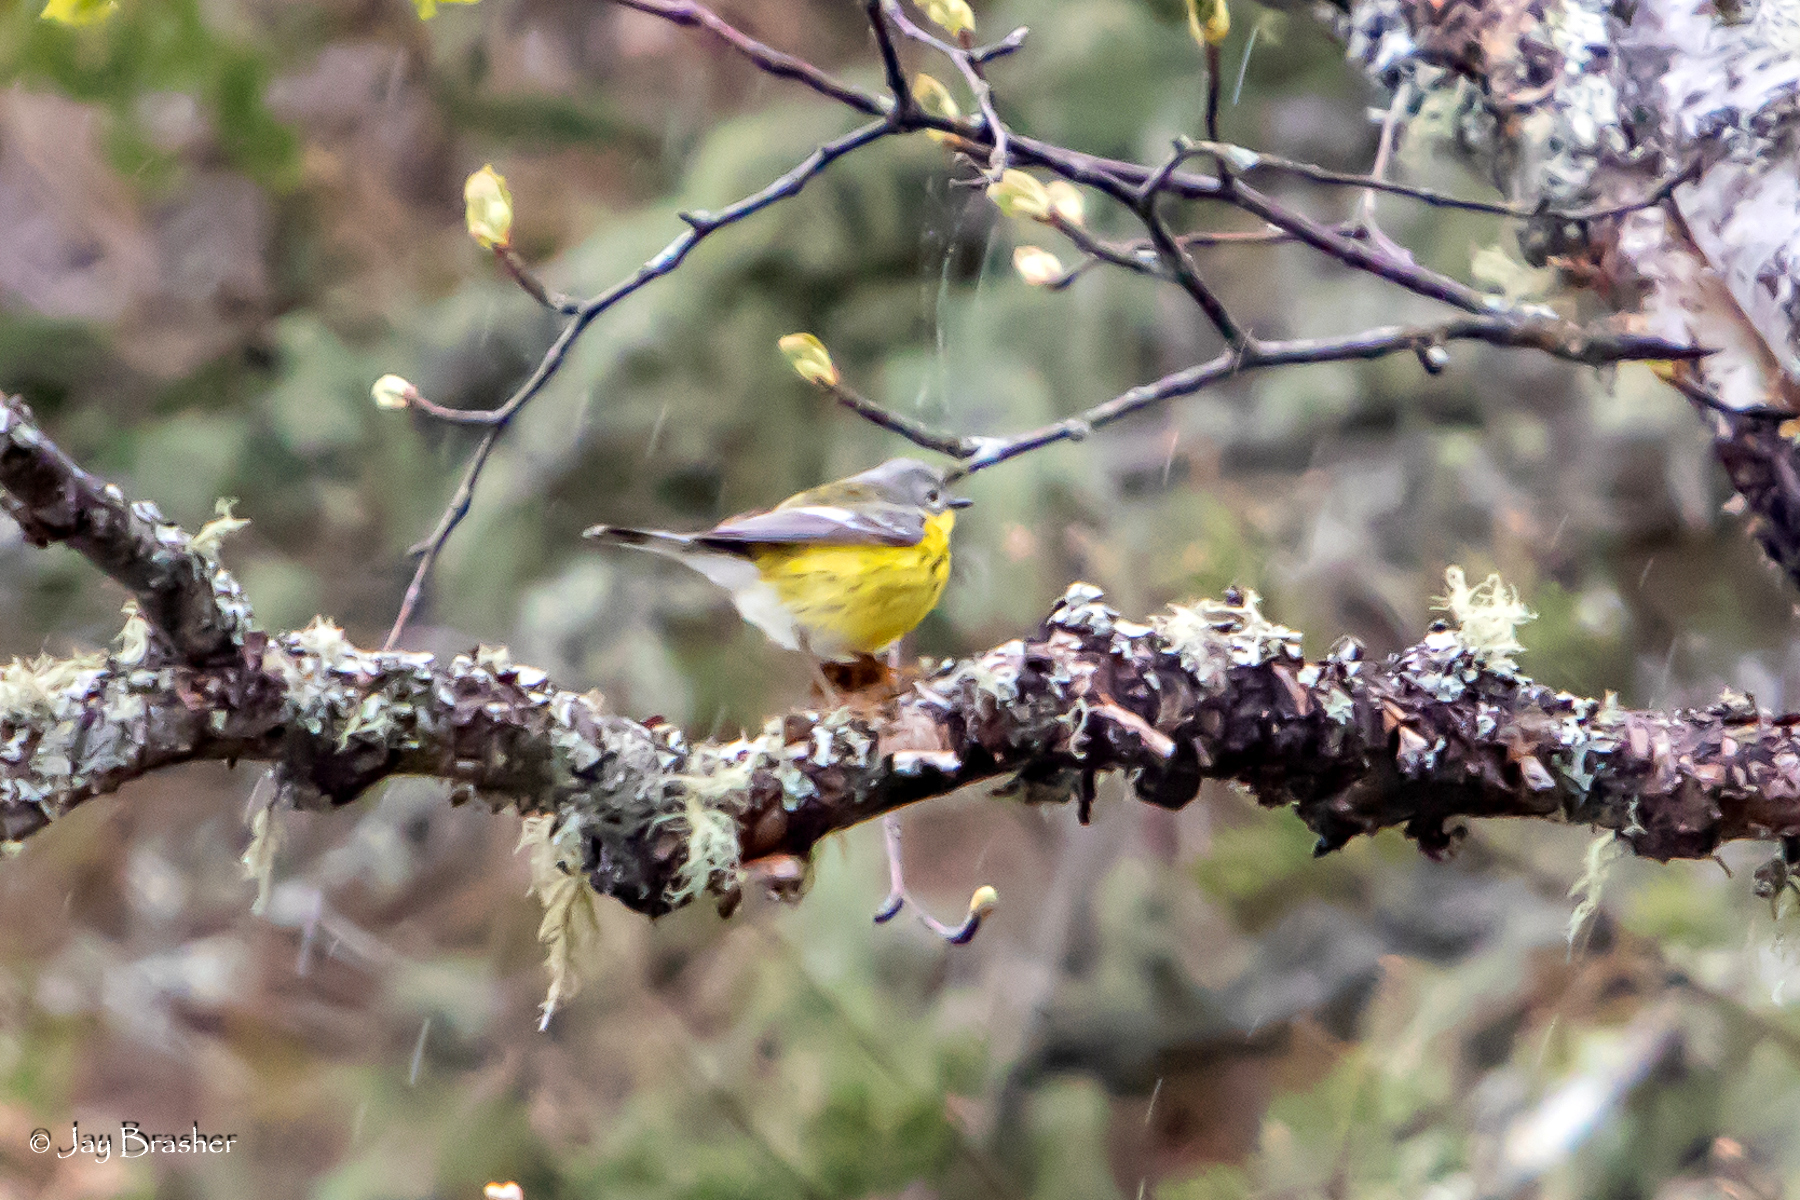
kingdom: Animalia
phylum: Chordata
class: Aves
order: Passeriformes
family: Parulidae
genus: Setophaga
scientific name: Setophaga magnolia
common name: Magnolia warbler
